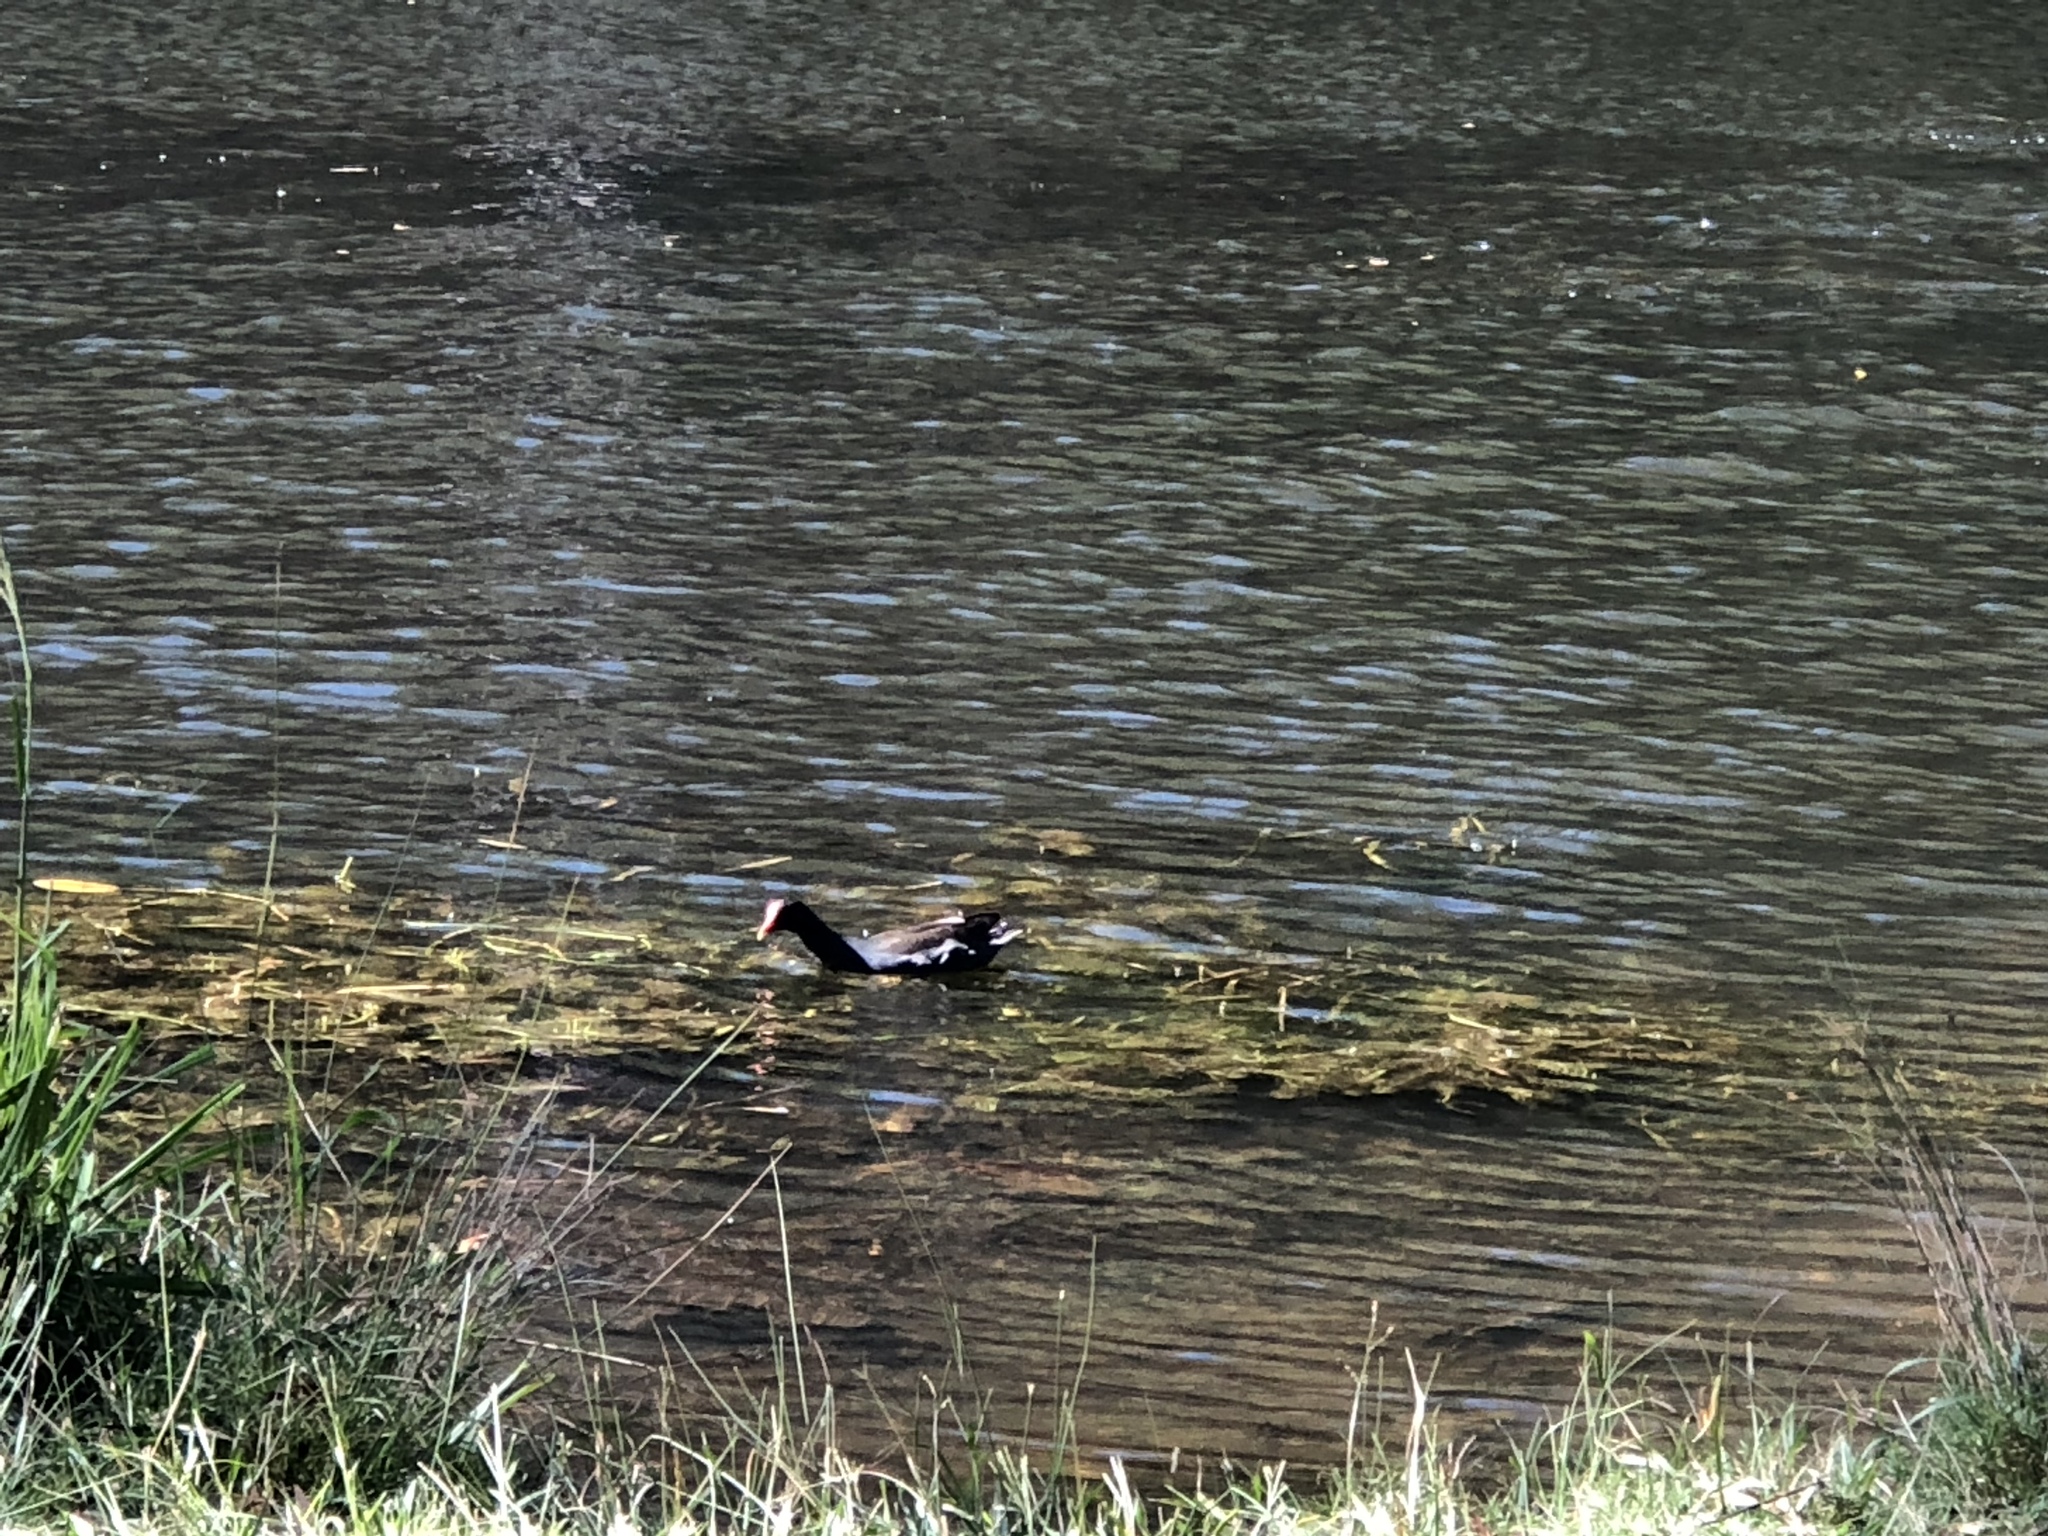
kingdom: Animalia
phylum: Chordata
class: Aves
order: Gruiformes
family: Rallidae
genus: Gallinula
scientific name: Gallinula tenebrosa
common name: Dusky moorhen
